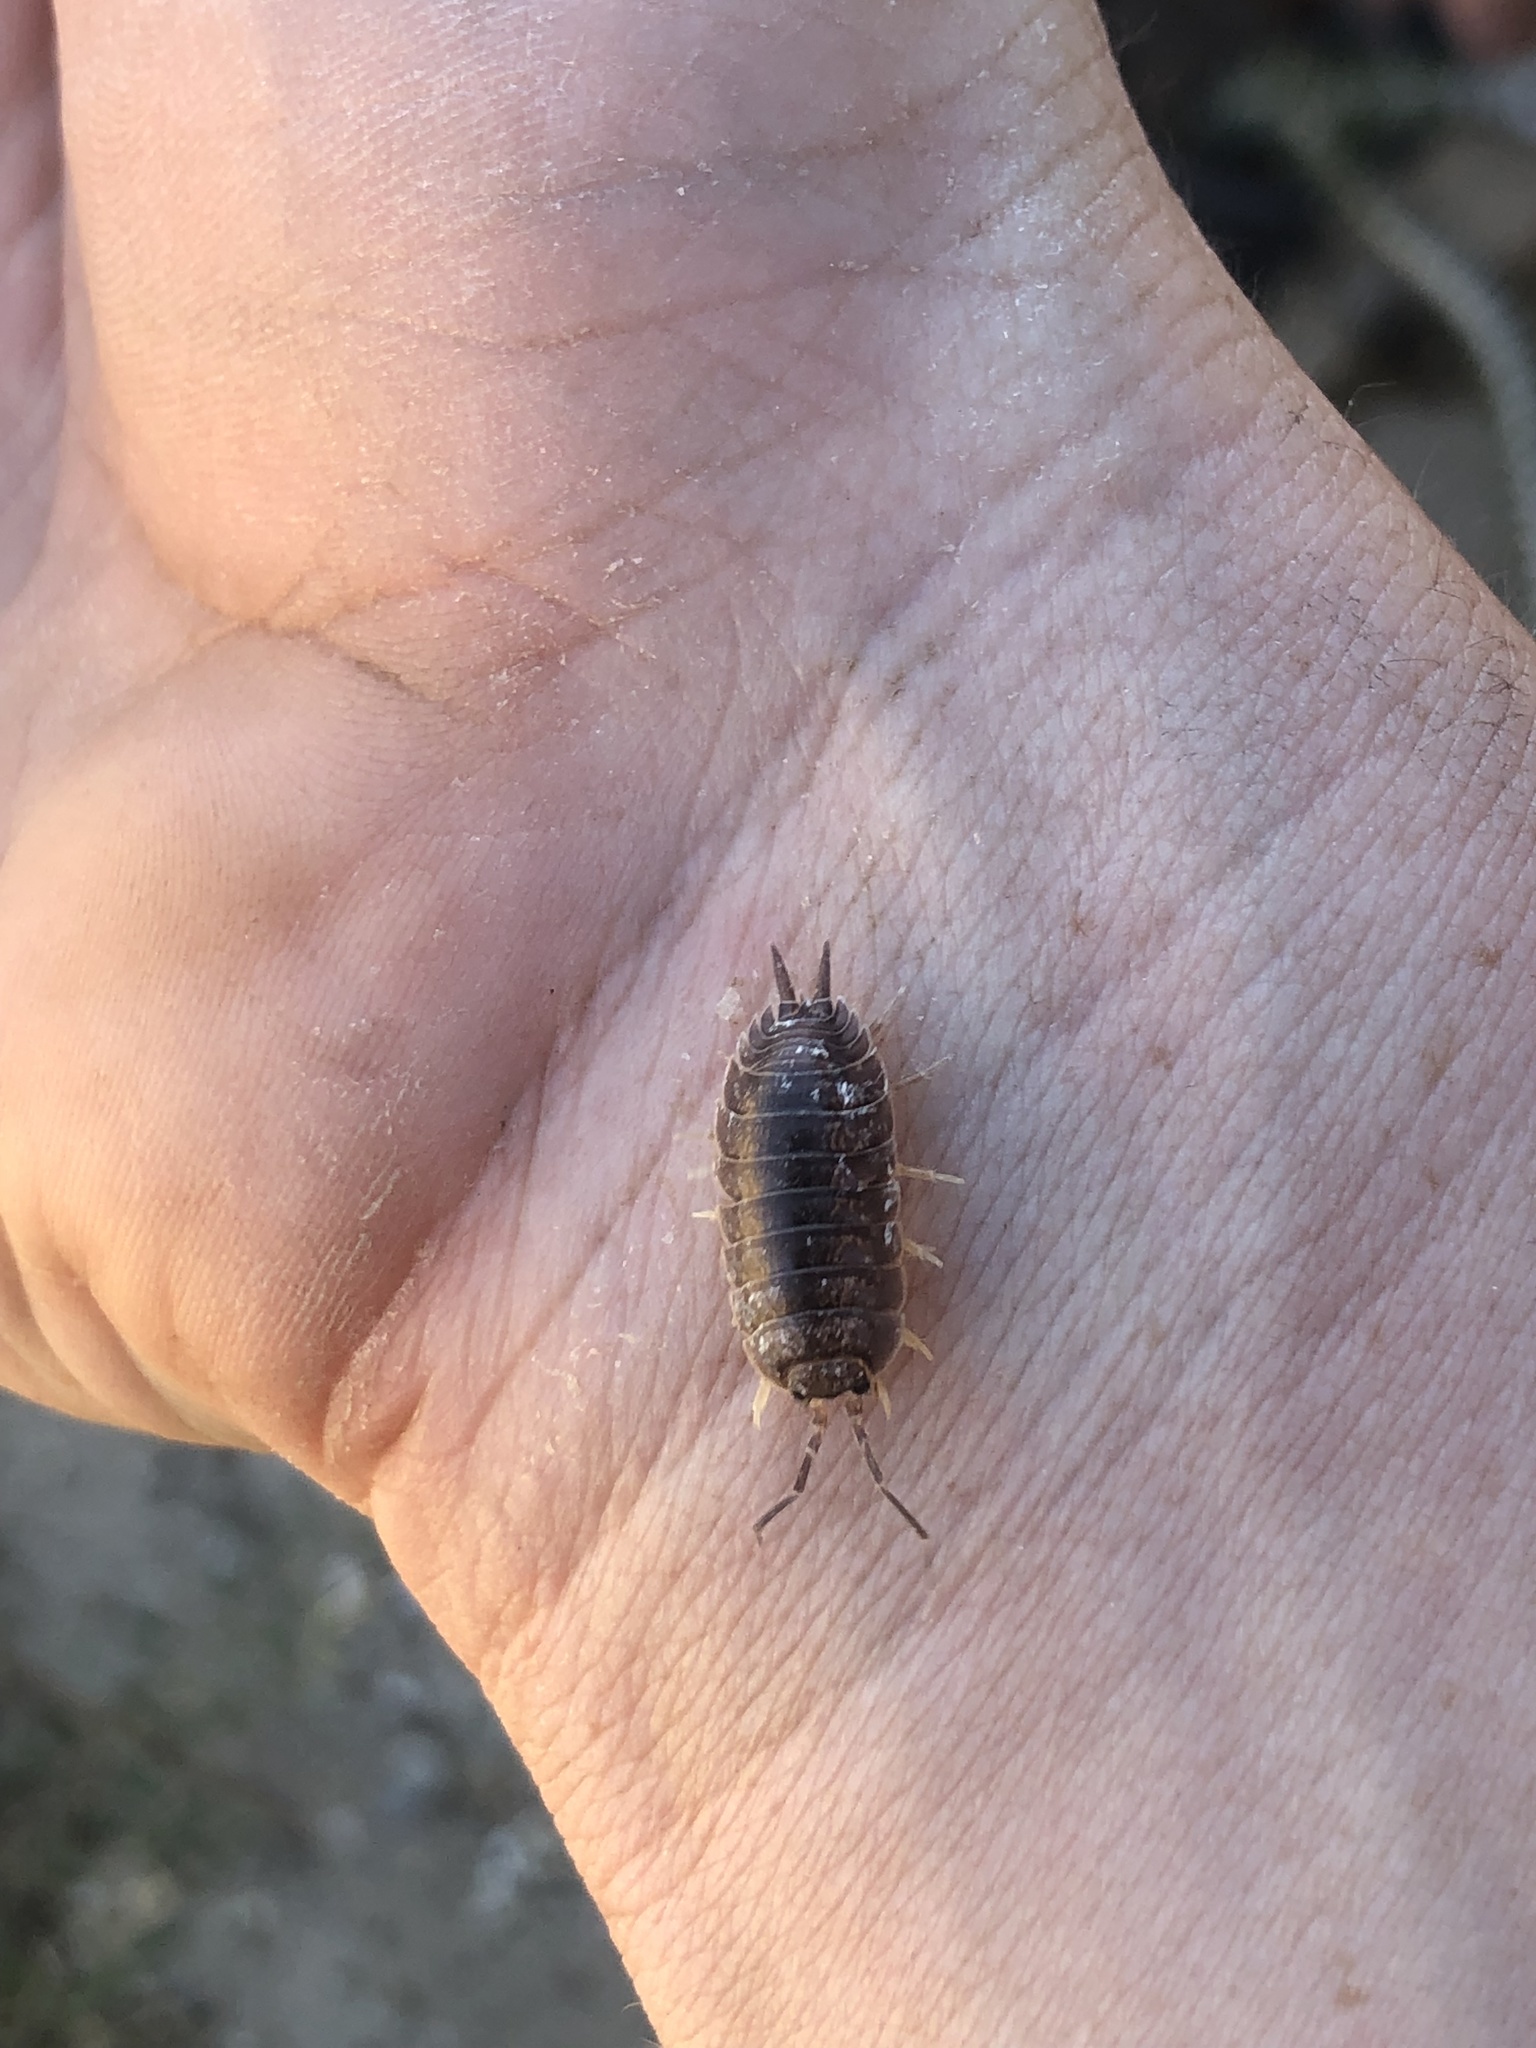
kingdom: Animalia
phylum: Arthropoda
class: Malacostraca
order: Isopoda
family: Porcellionidae
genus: Porcellio
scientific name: Porcellio laevis
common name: Swift woodlouse
